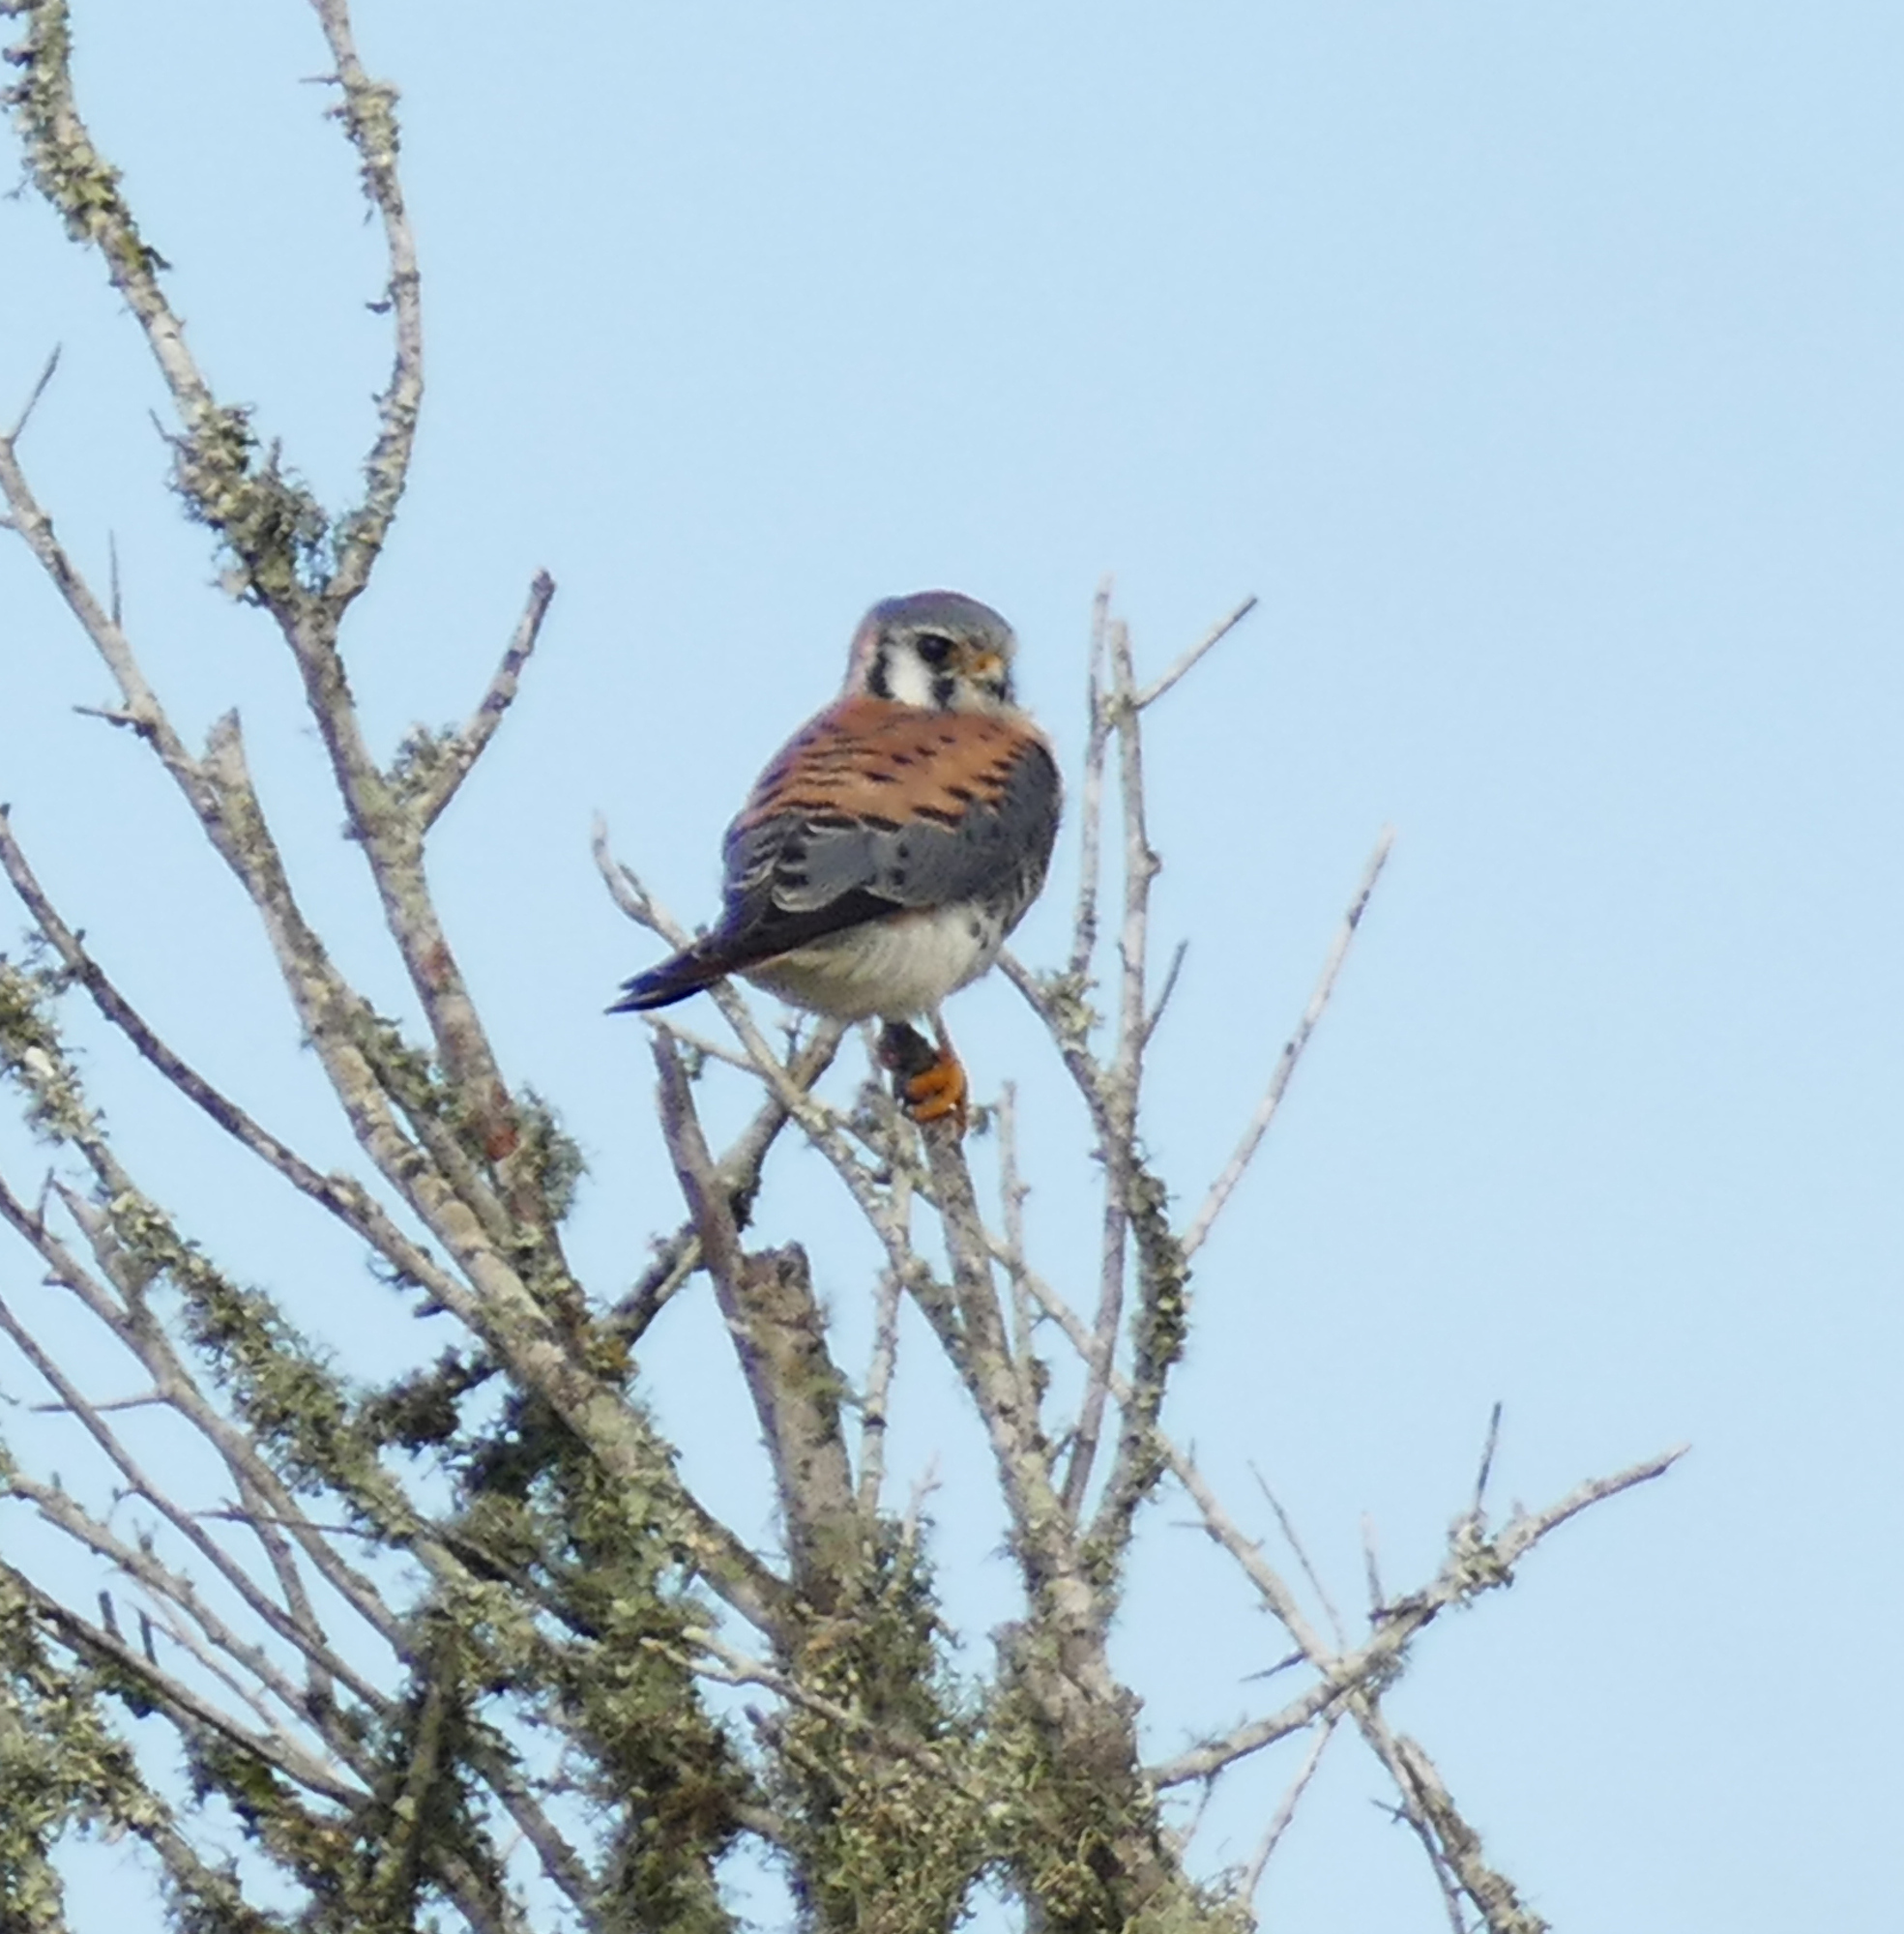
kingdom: Animalia
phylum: Chordata
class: Aves
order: Falconiformes
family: Falconidae
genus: Falco
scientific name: Falco sparverius
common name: American kestrel
